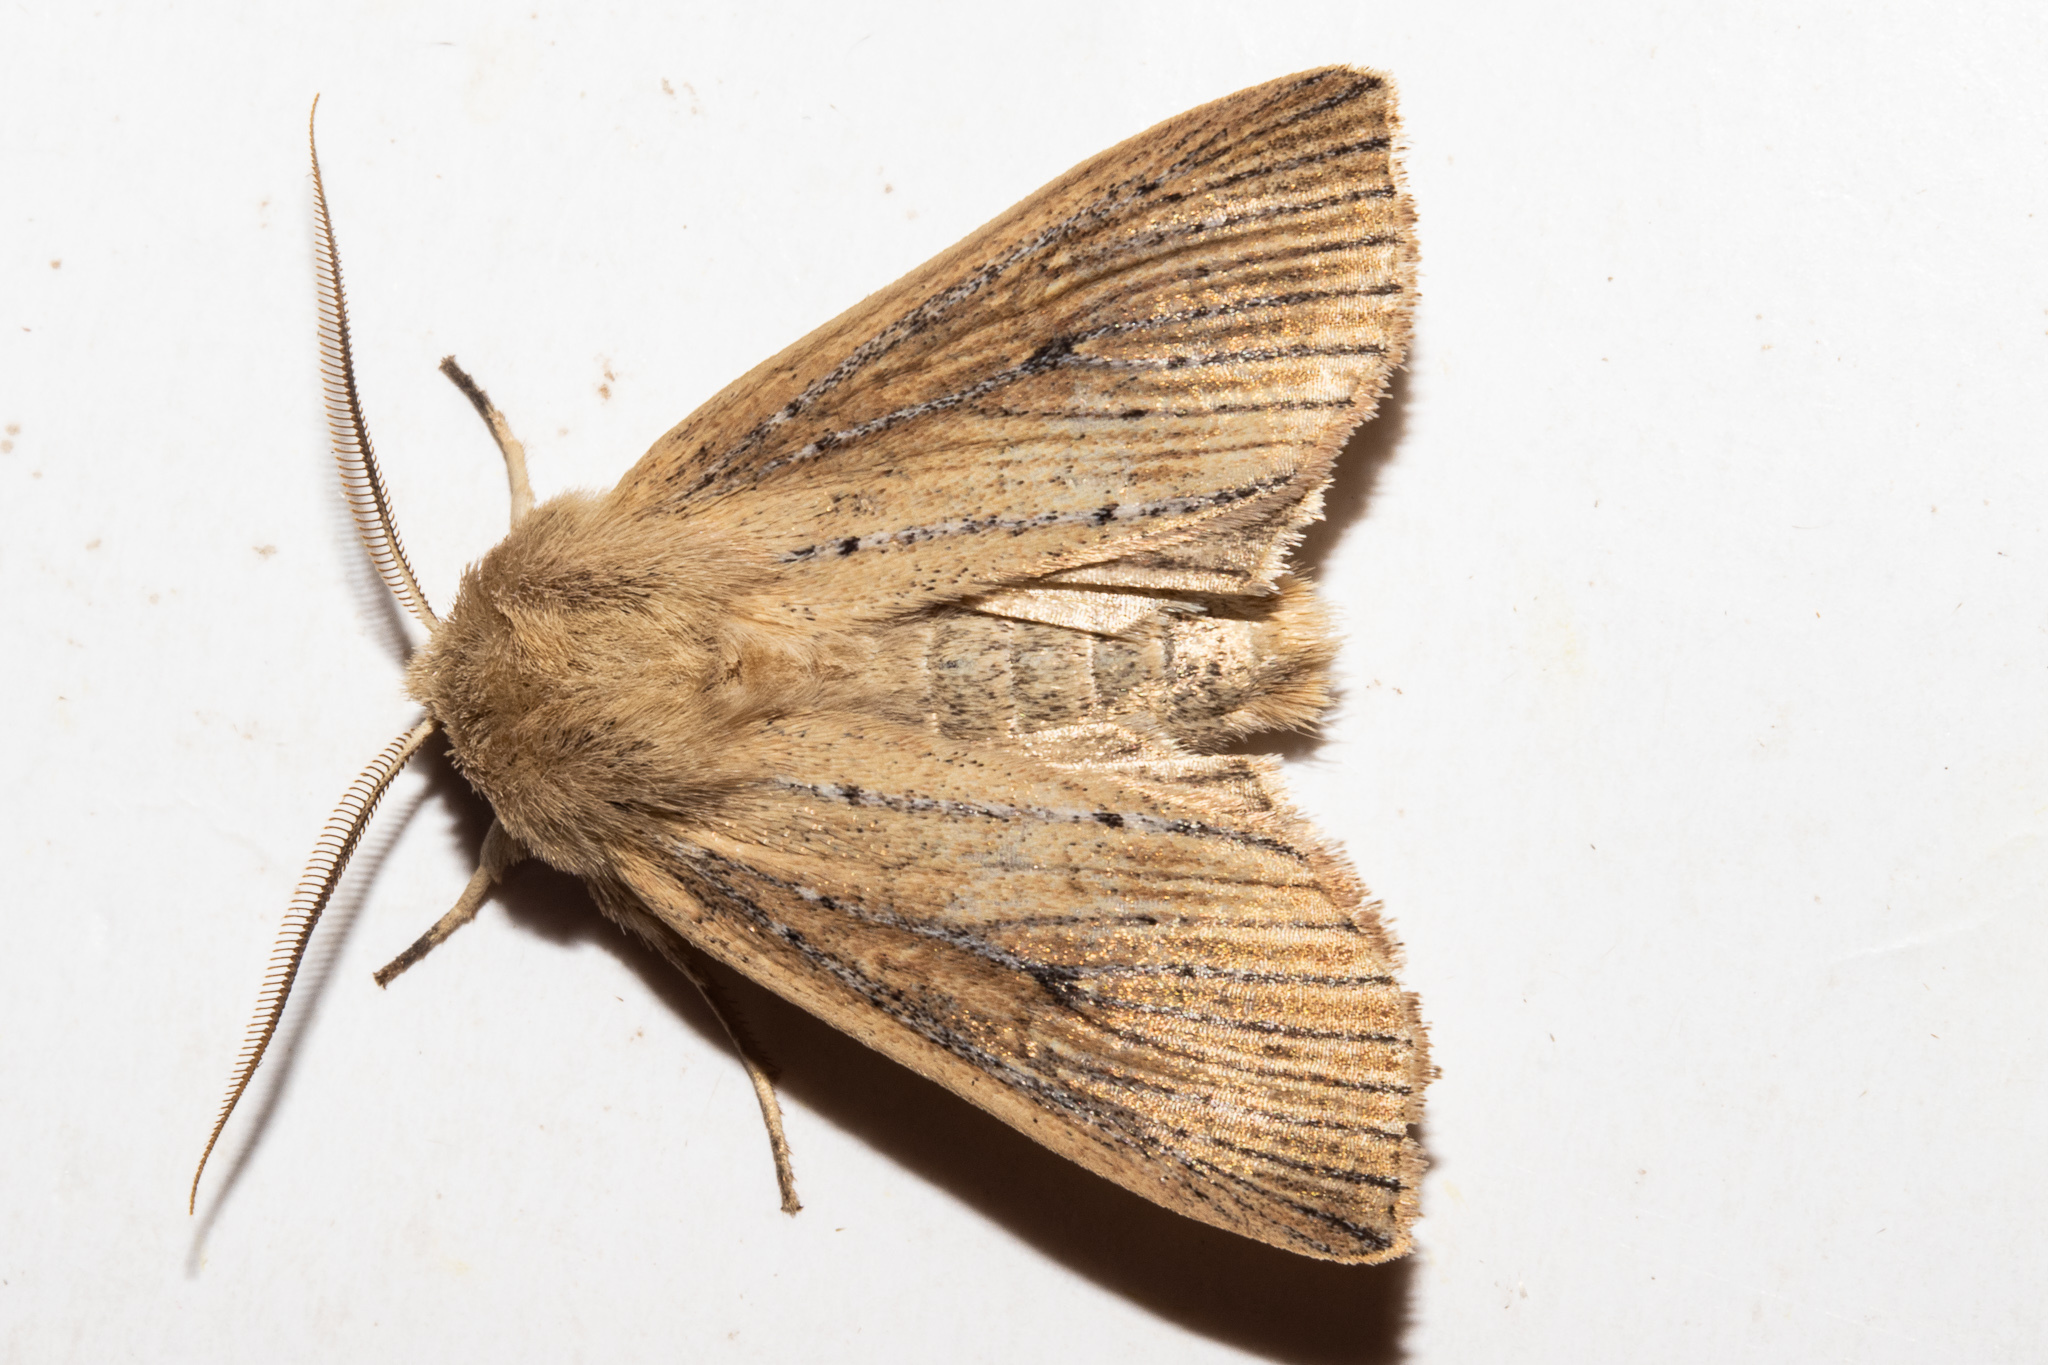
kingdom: Animalia
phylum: Arthropoda
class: Insecta
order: Lepidoptera
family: Noctuidae
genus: Ichneutica
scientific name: Ichneutica cornuta
